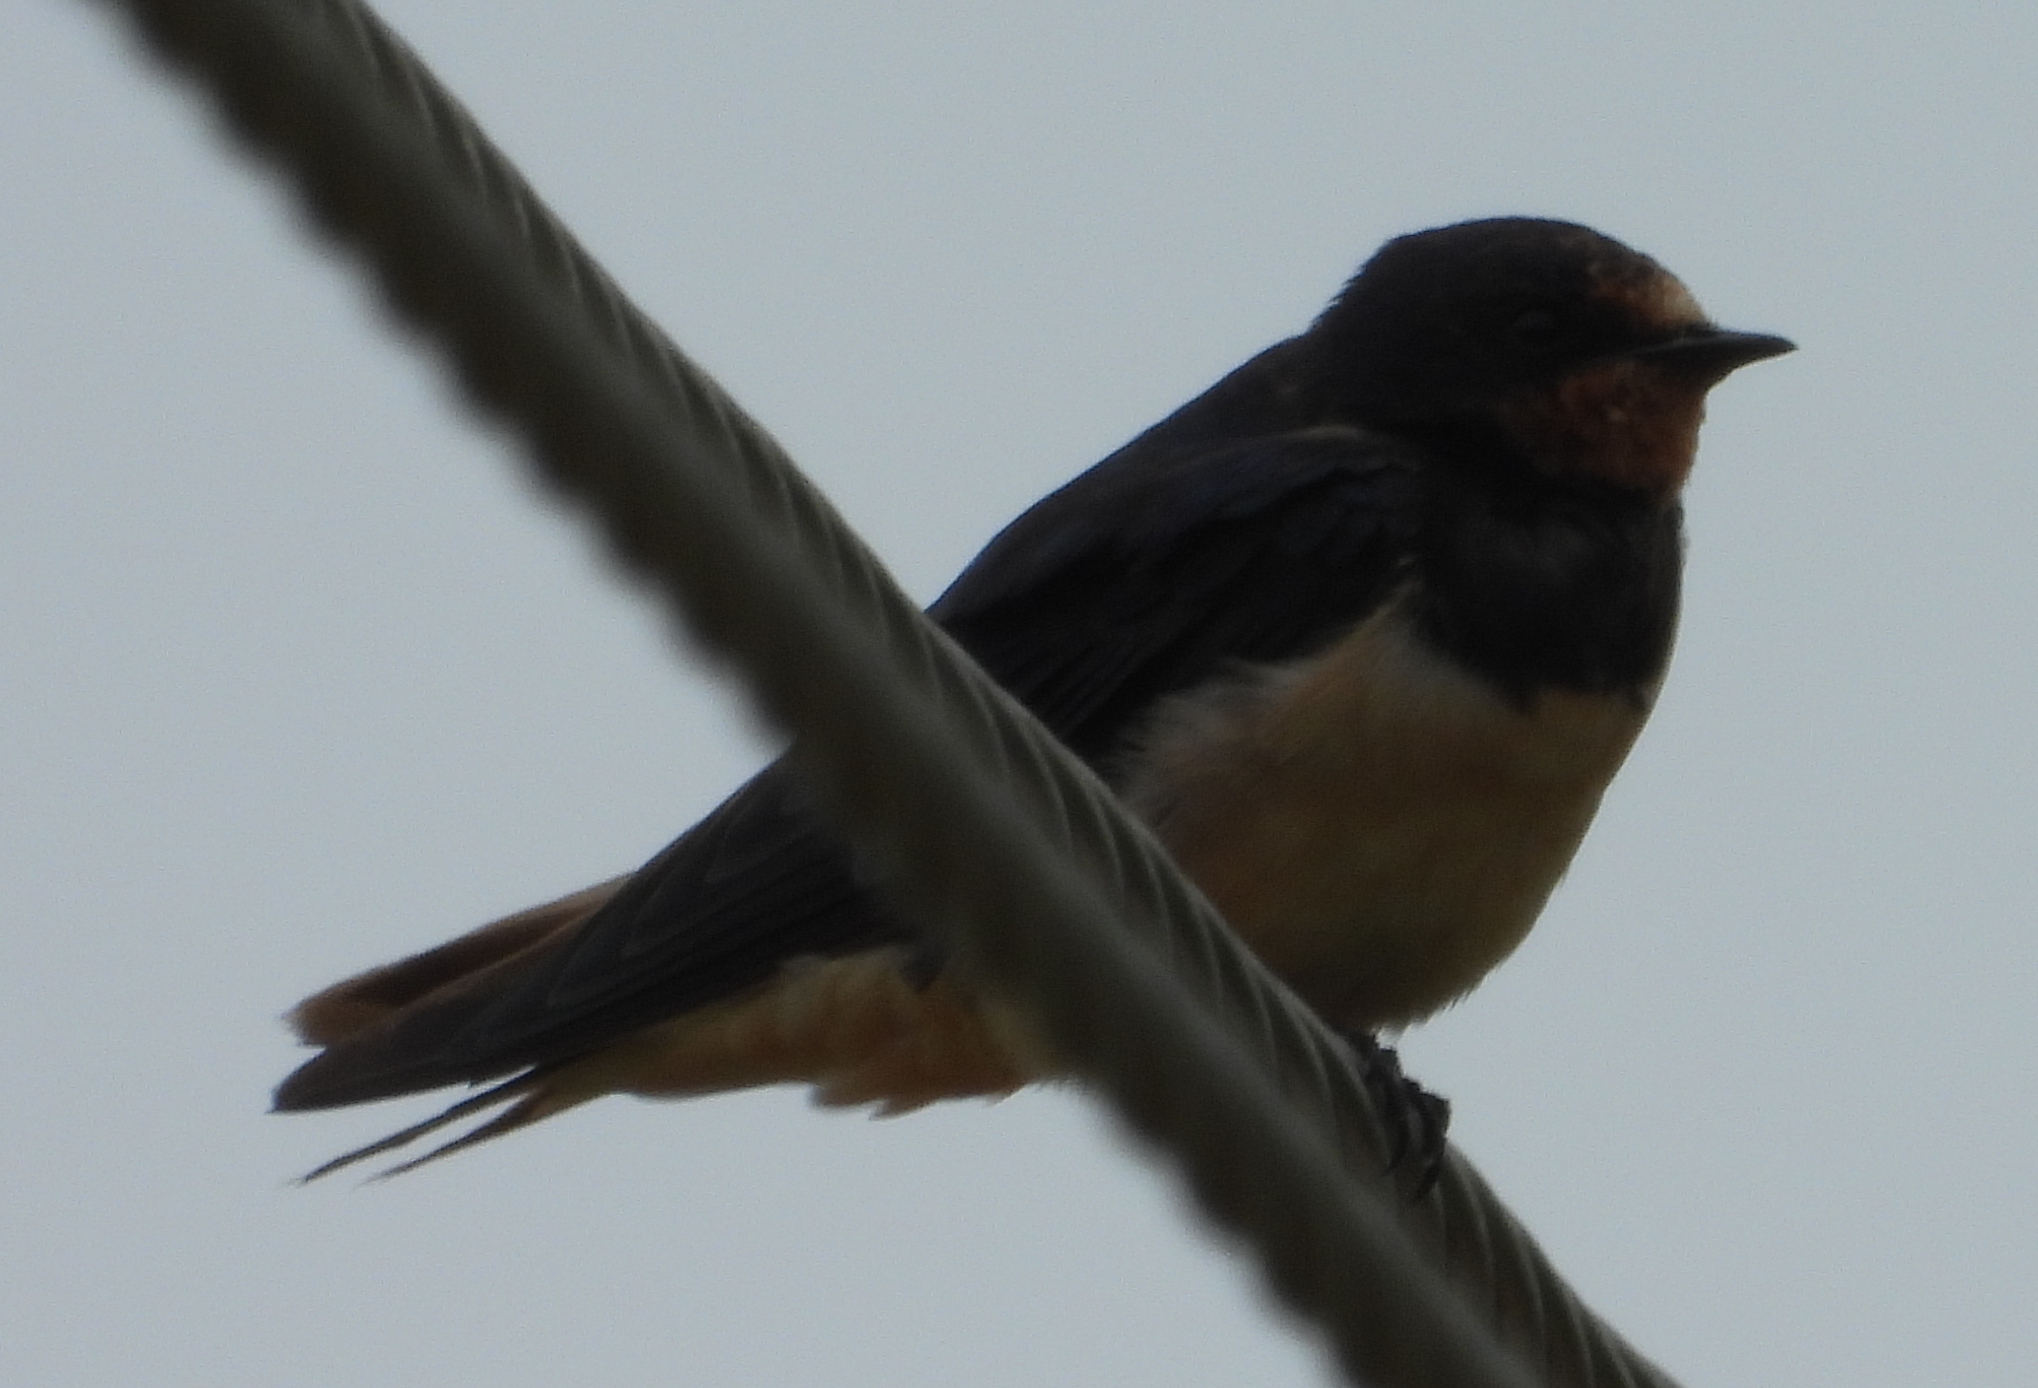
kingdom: Animalia
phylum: Chordata
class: Aves
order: Passeriformes
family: Hirundinidae
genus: Hirundo
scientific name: Hirundo rustica
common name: Barn swallow
